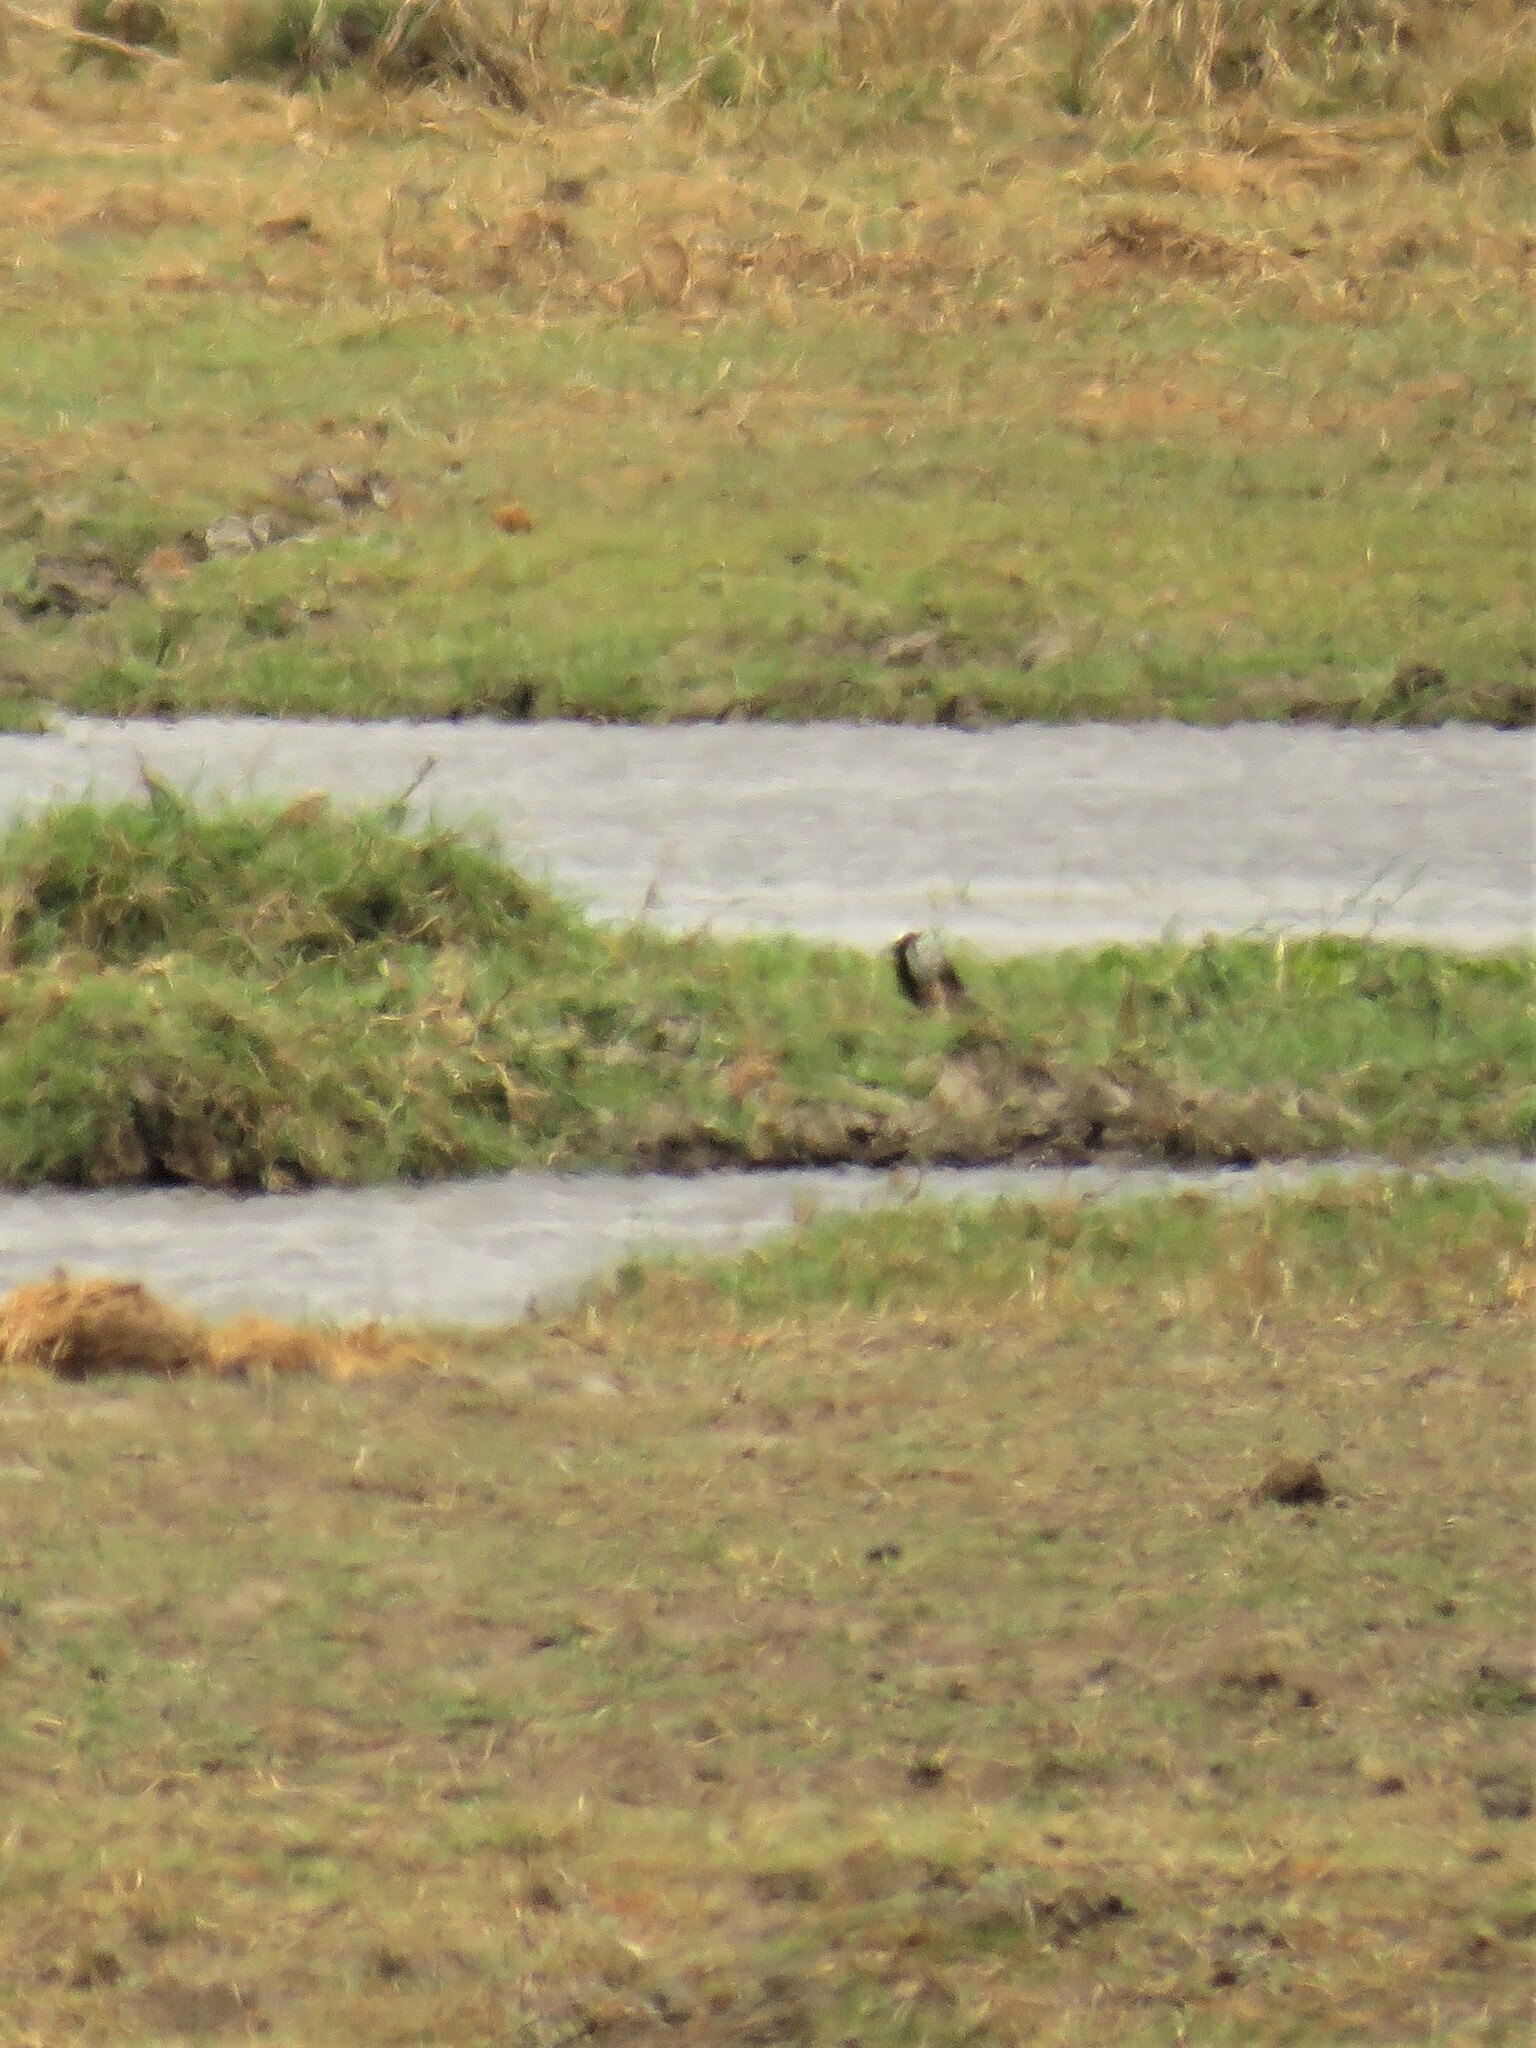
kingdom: Animalia
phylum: Chordata
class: Aves
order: Charadriiformes
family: Charadriidae
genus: Vanellus
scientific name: Vanellus armatus
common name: Blacksmith lapwing
